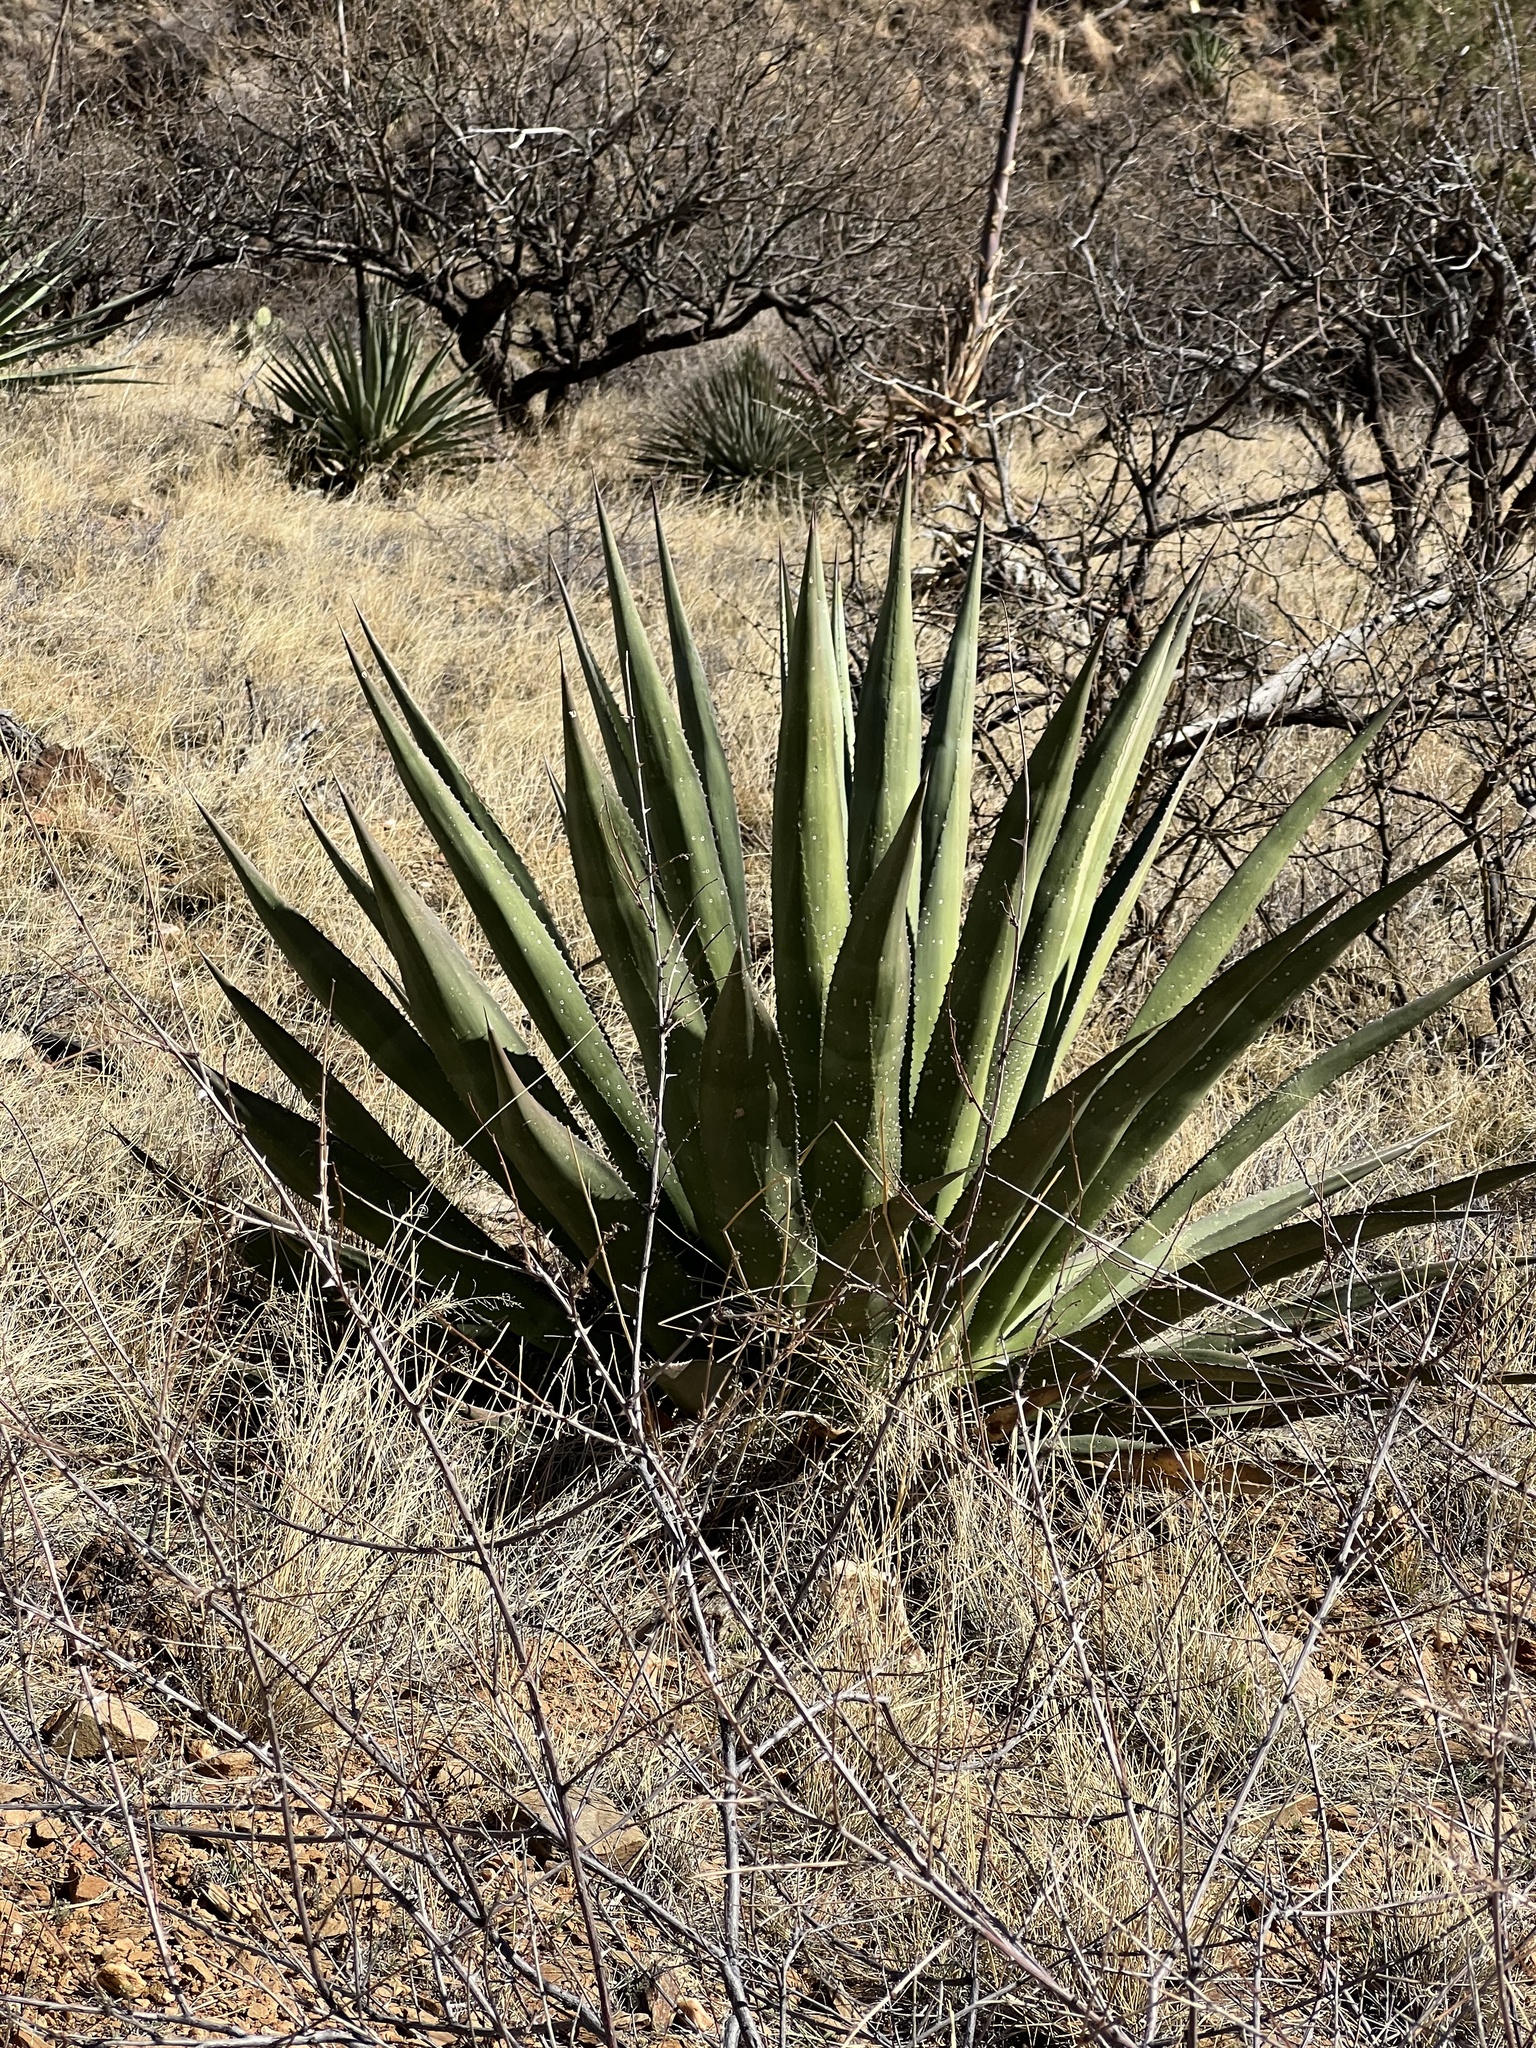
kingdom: Plantae
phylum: Tracheophyta
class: Liliopsida
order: Asparagales
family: Asparagaceae
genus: Agave
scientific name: Agave palmeri
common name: Palmer agave
